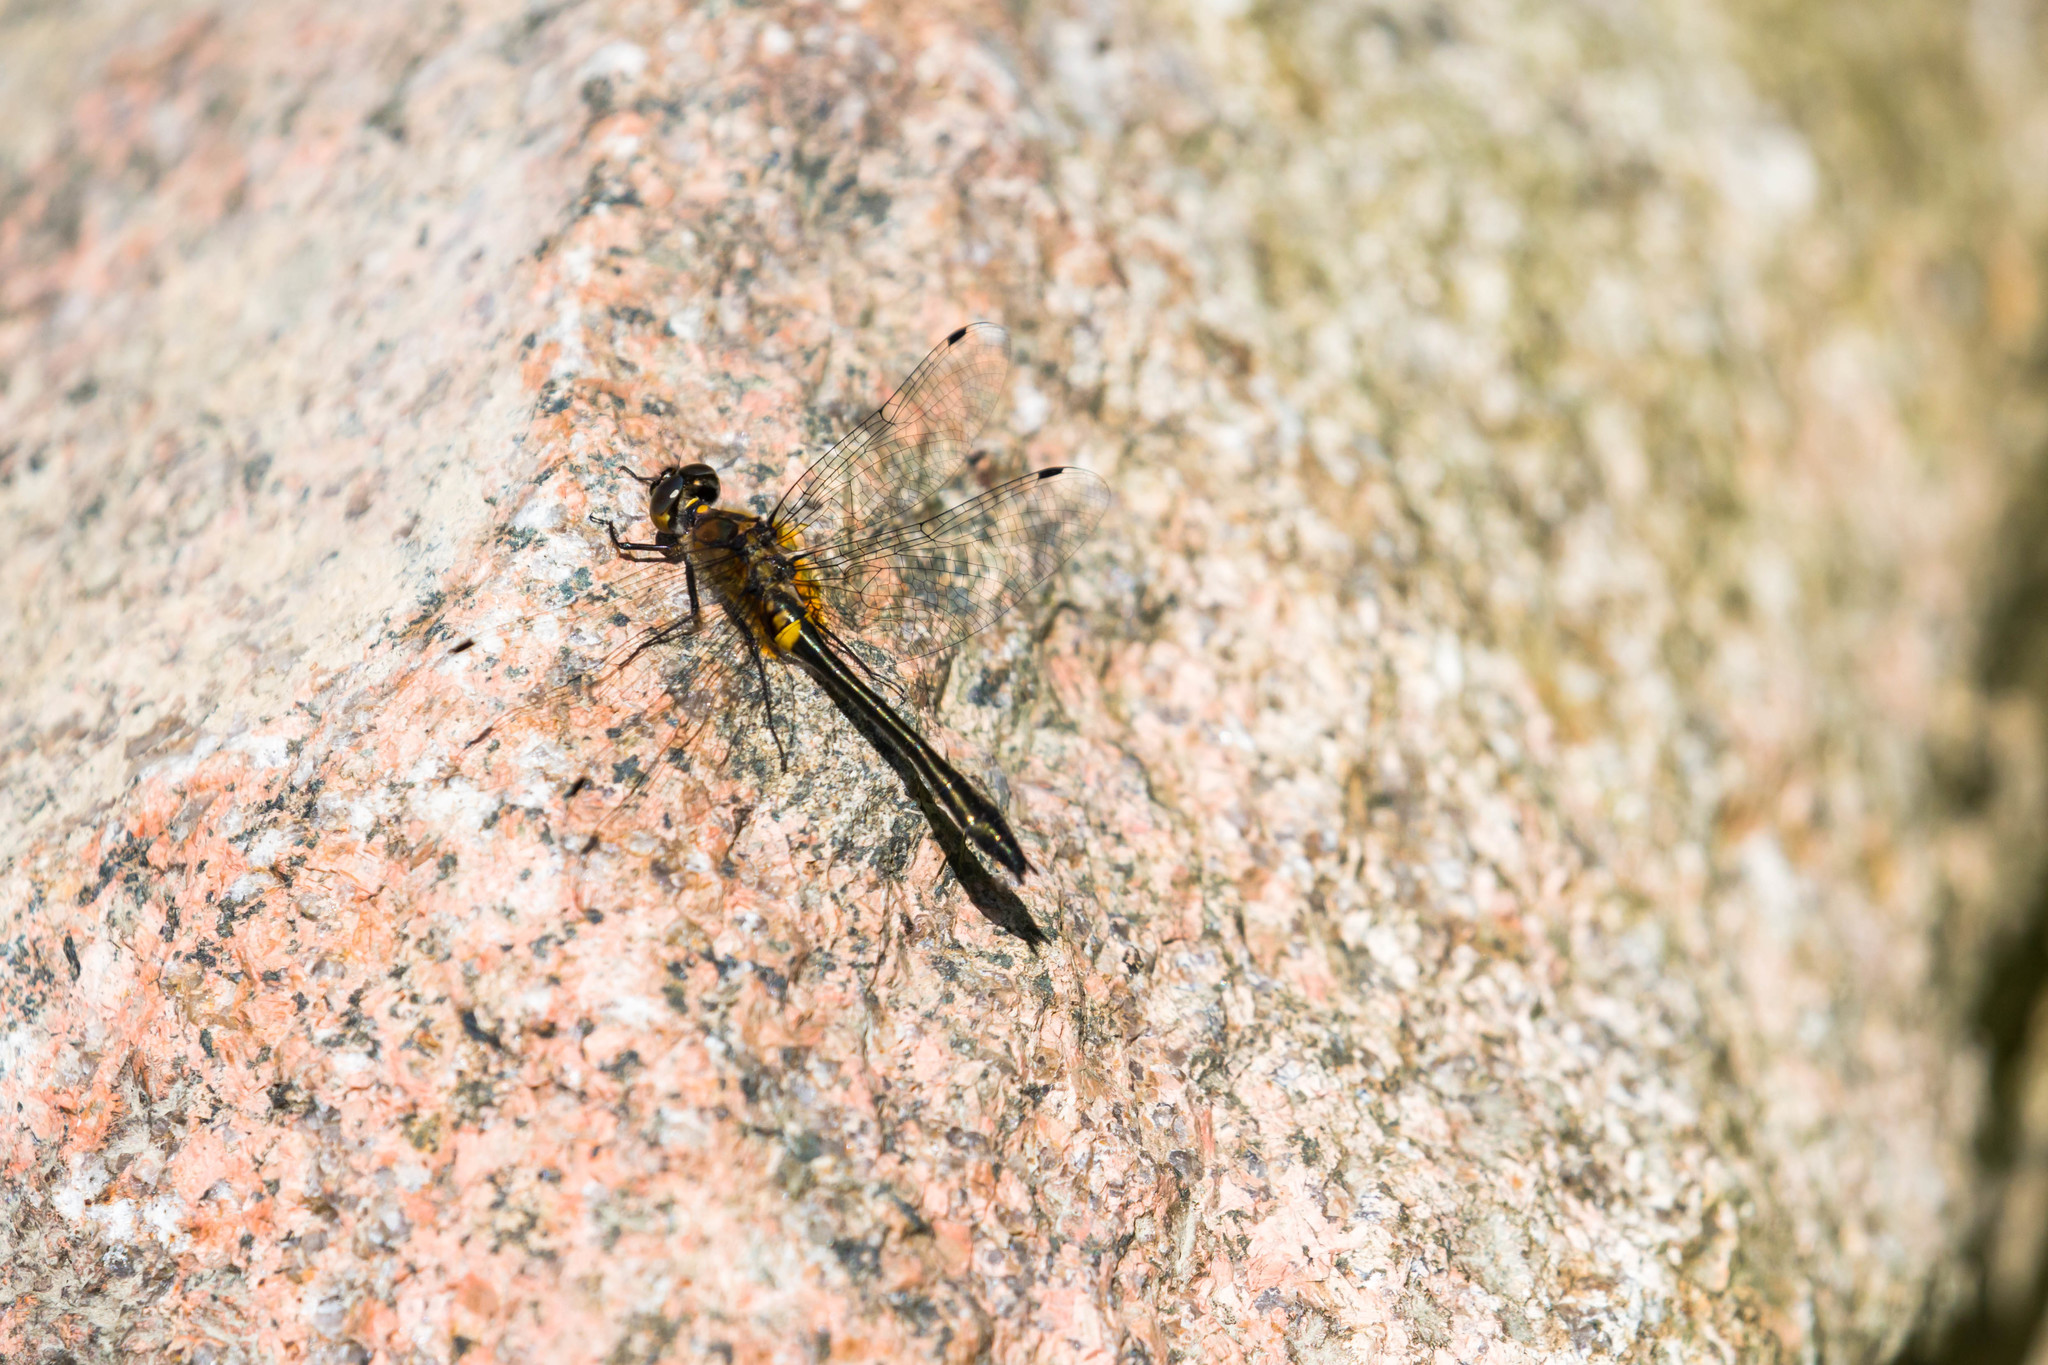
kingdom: Animalia
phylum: Arthropoda
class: Insecta
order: Odonata
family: Corduliidae
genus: Dorocordulia
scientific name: Dorocordulia libera
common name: Racket-tailed emerald
